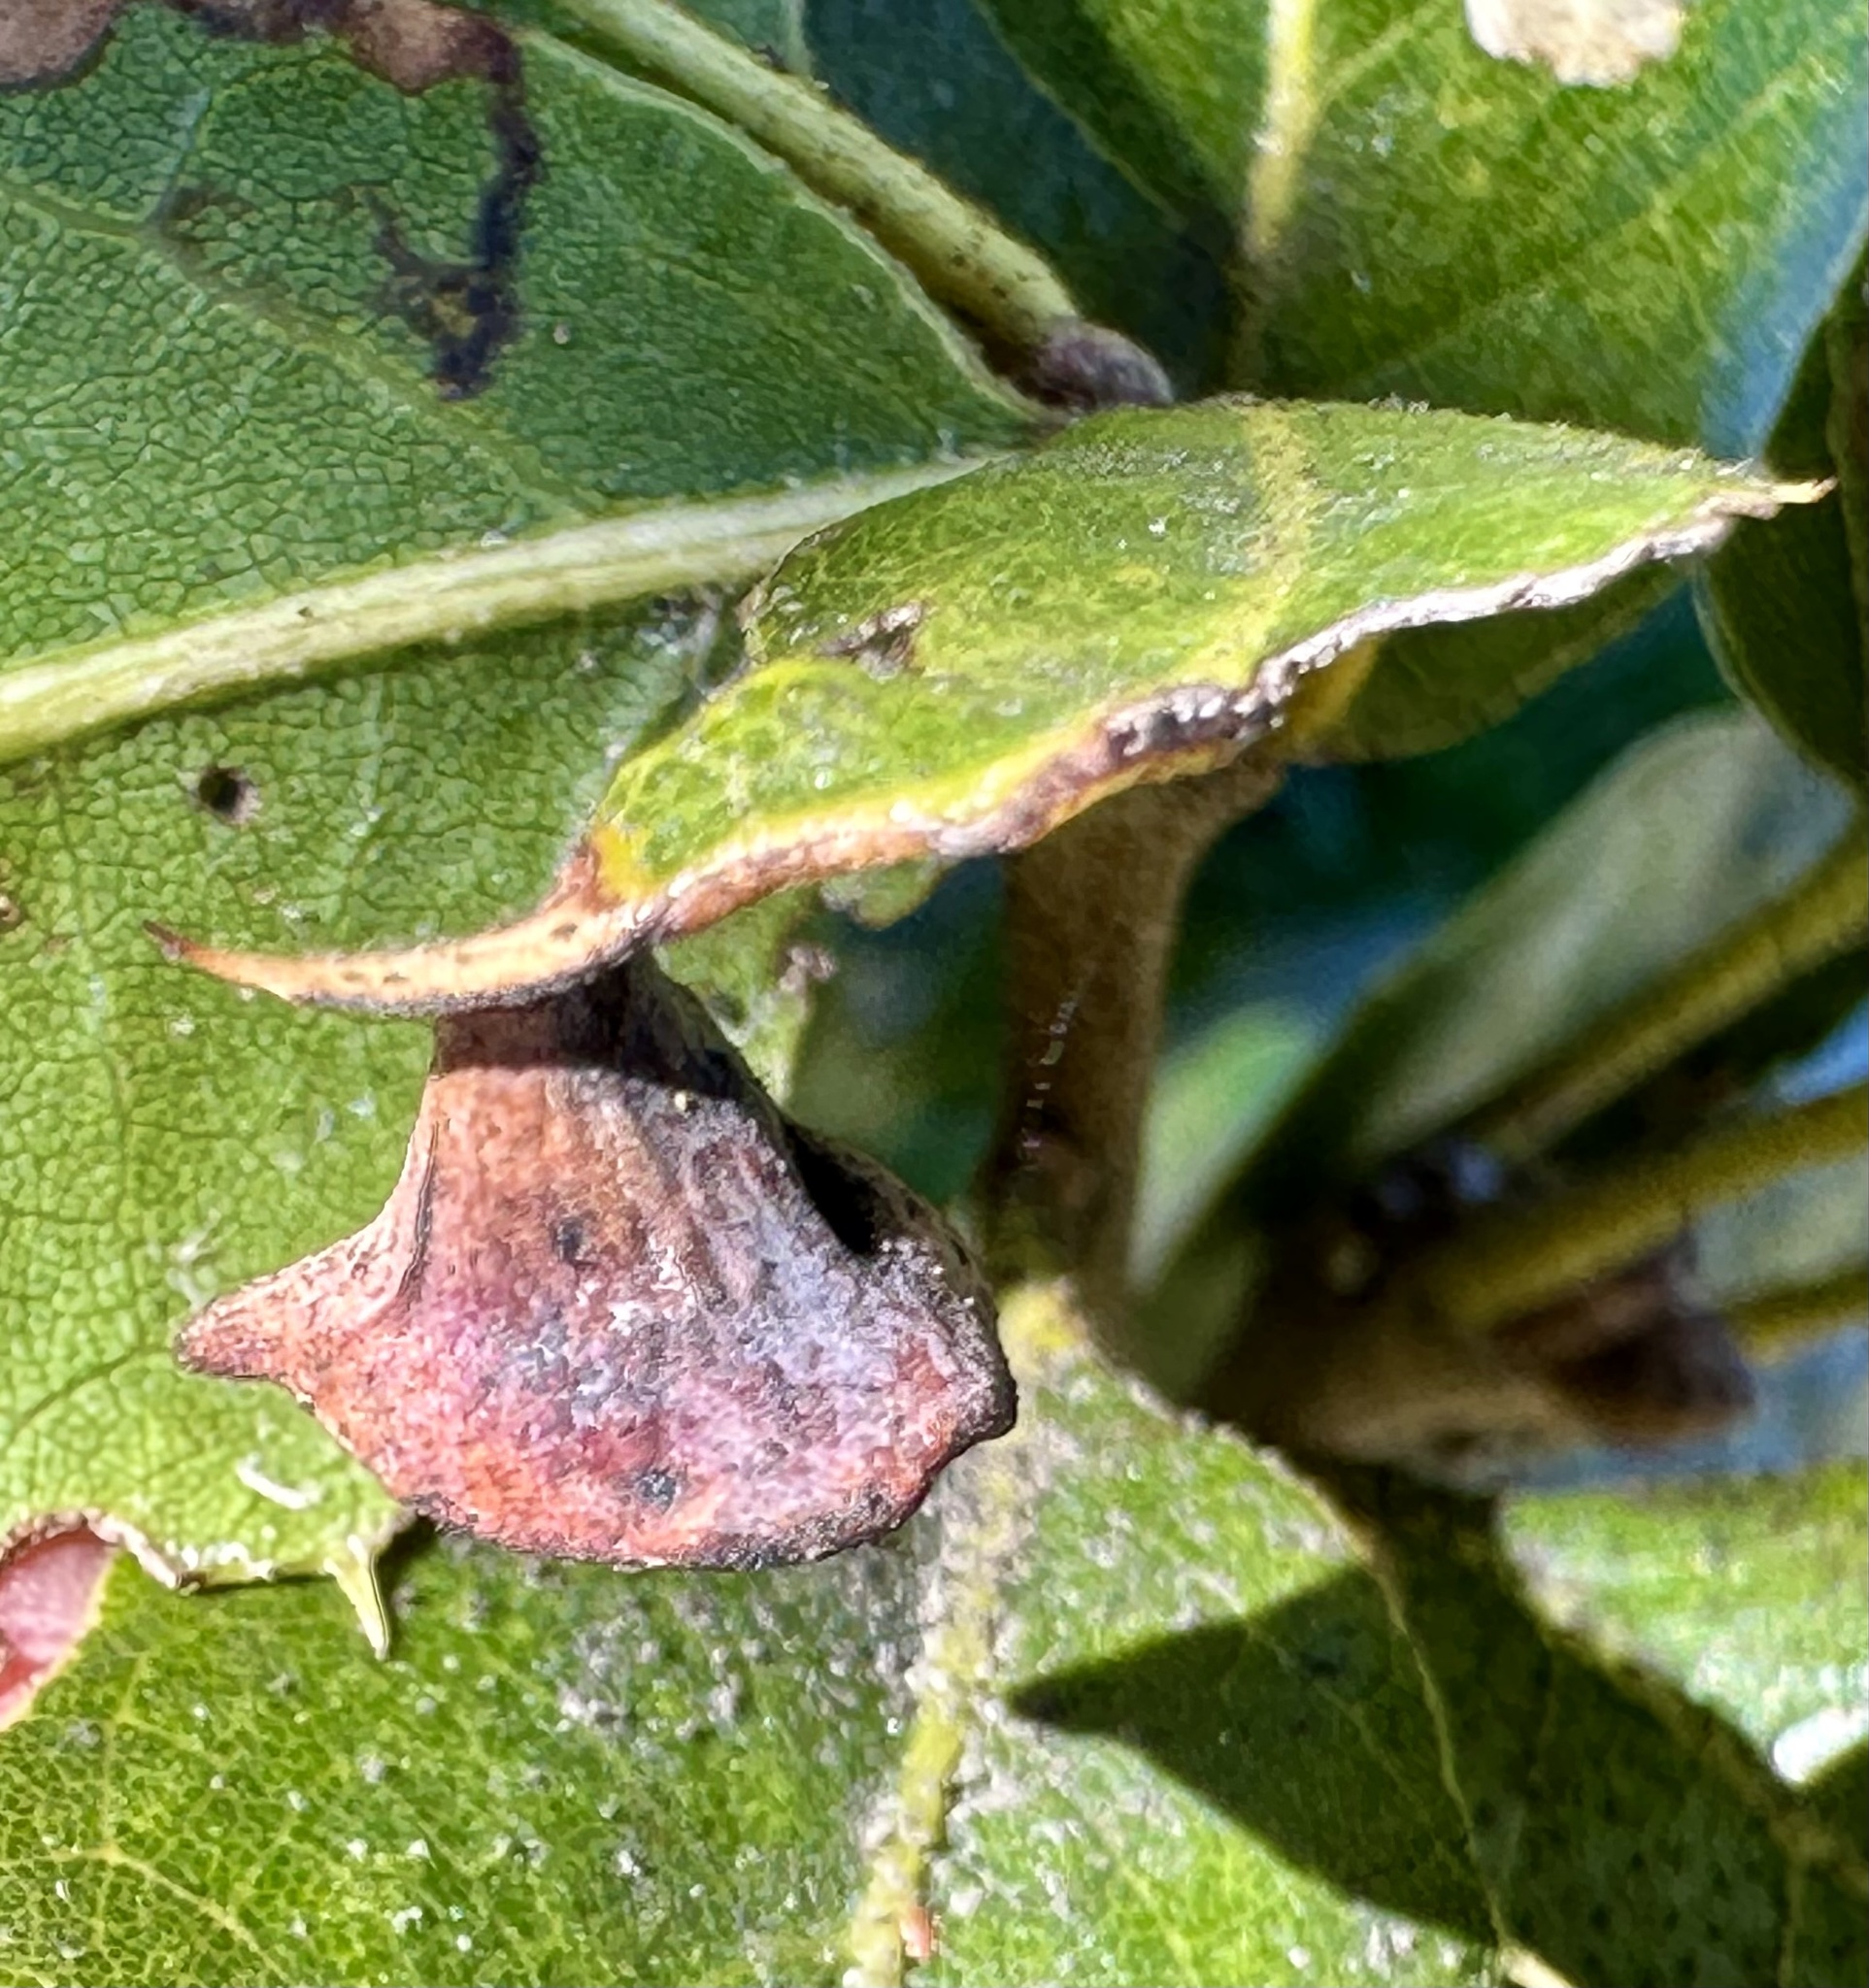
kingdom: Animalia
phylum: Arthropoda
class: Insecta
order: Hymenoptera
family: Cynipidae
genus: Amphibolips
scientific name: Amphibolips quercuspomiformis
